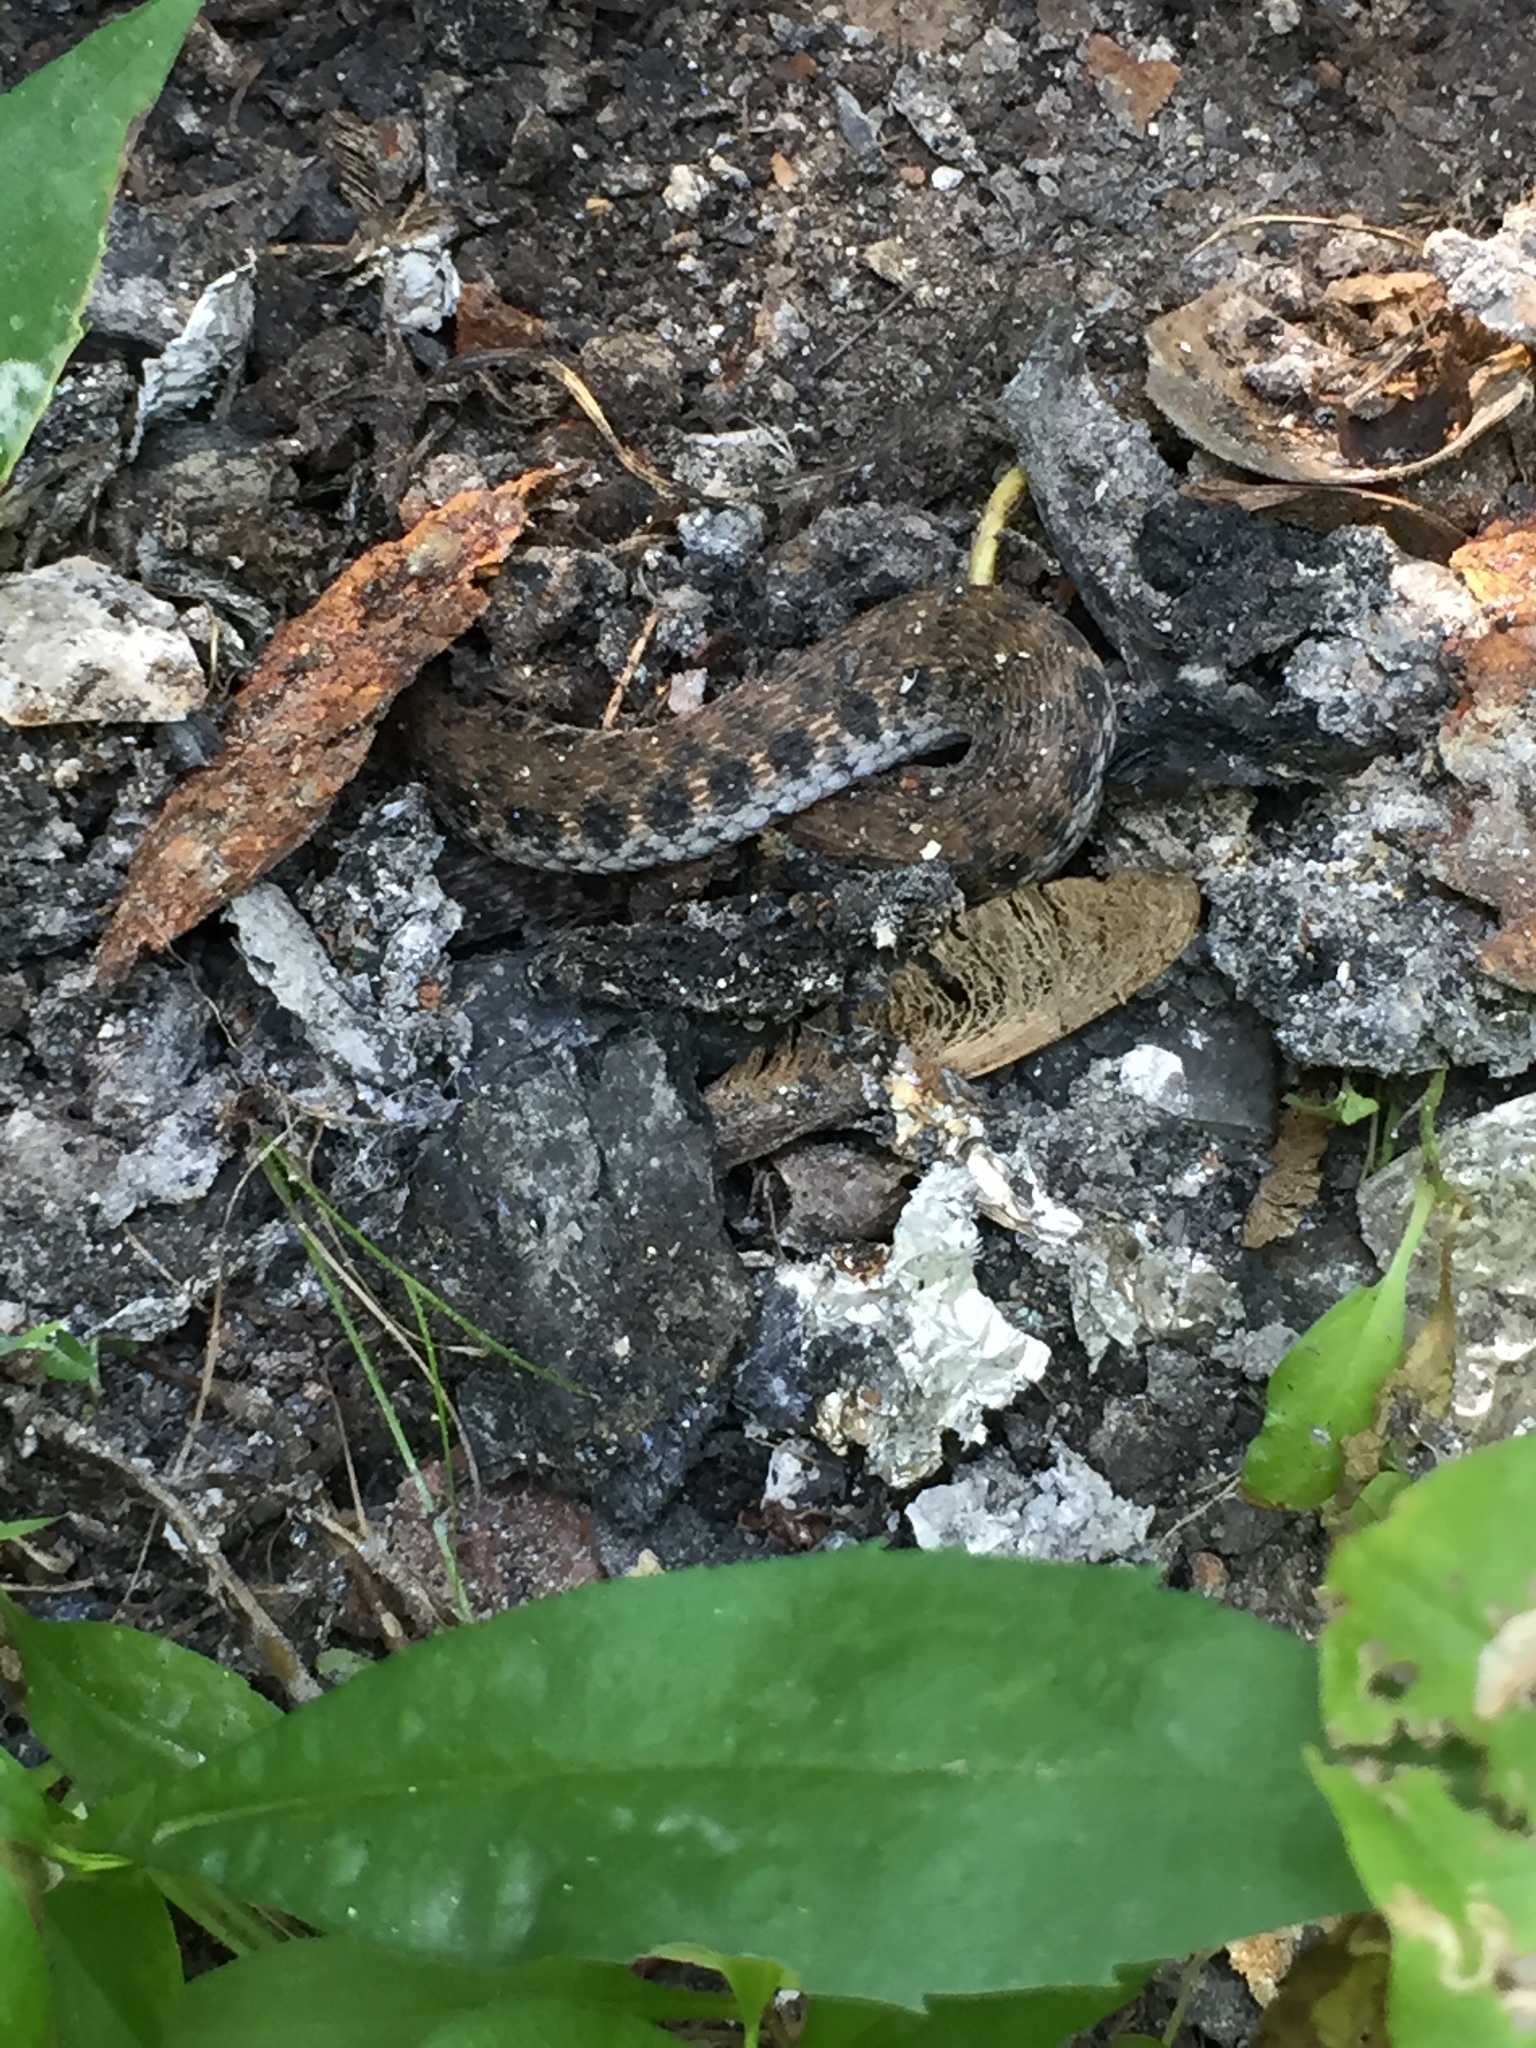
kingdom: Animalia
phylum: Chordata
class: Squamata
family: Colubridae
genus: Clonophis
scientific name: Clonophis kirtlandii
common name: Kirtland's snake
